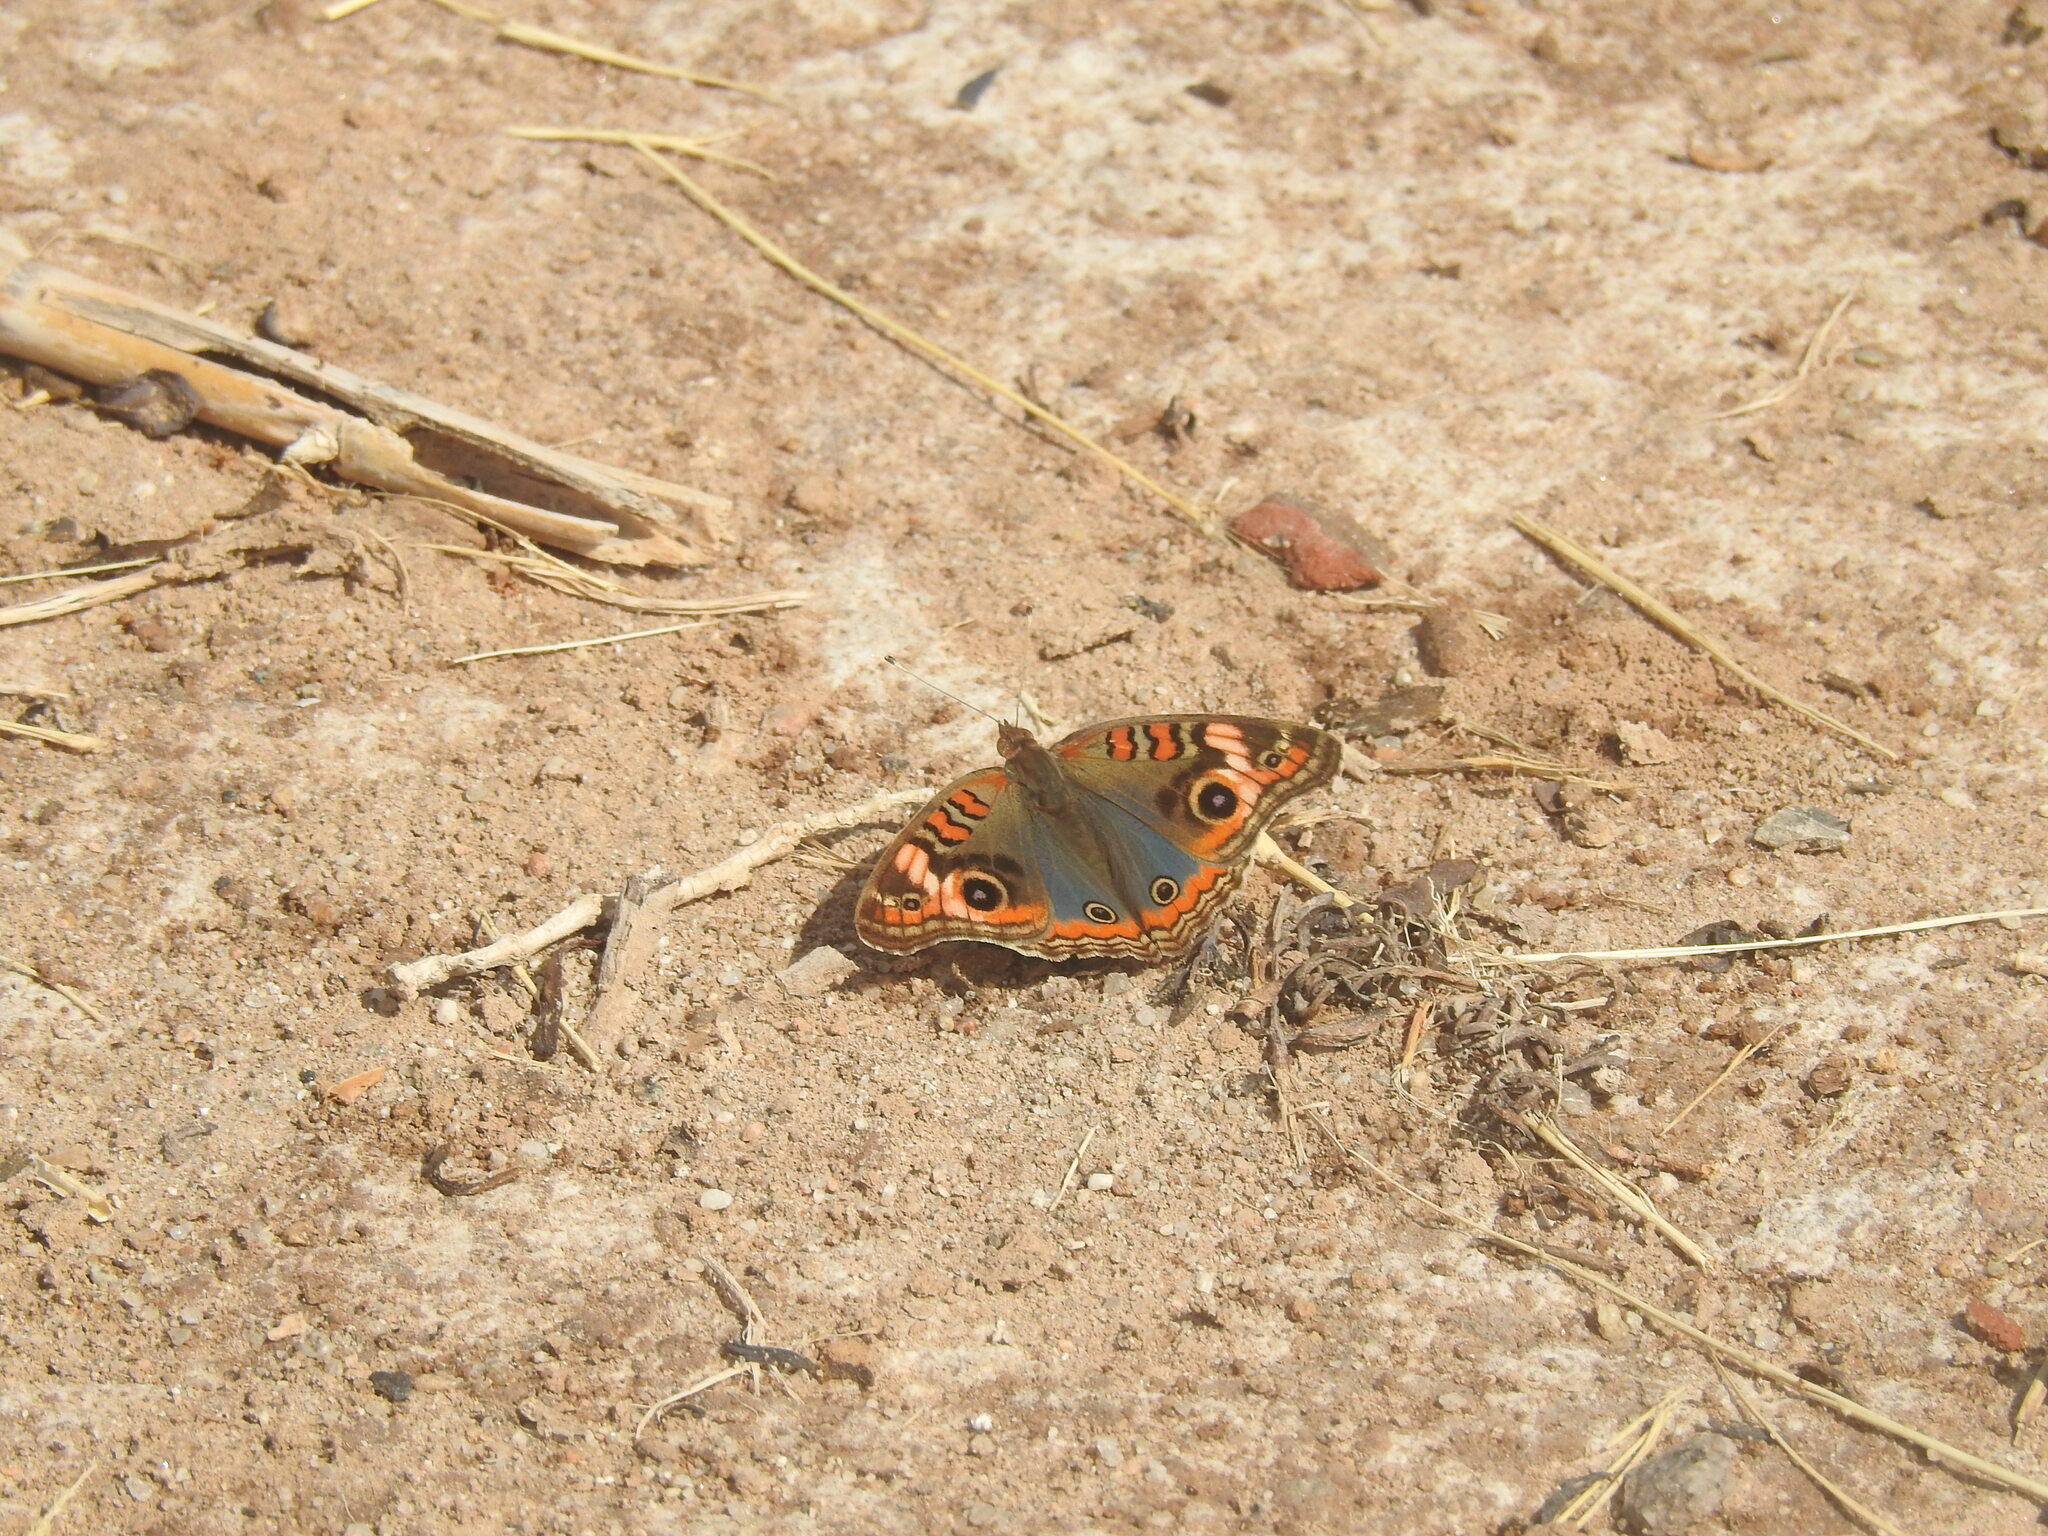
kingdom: Animalia
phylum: Arthropoda
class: Insecta
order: Lepidoptera
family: Nymphalidae
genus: Junonia
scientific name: Junonia lavinia
